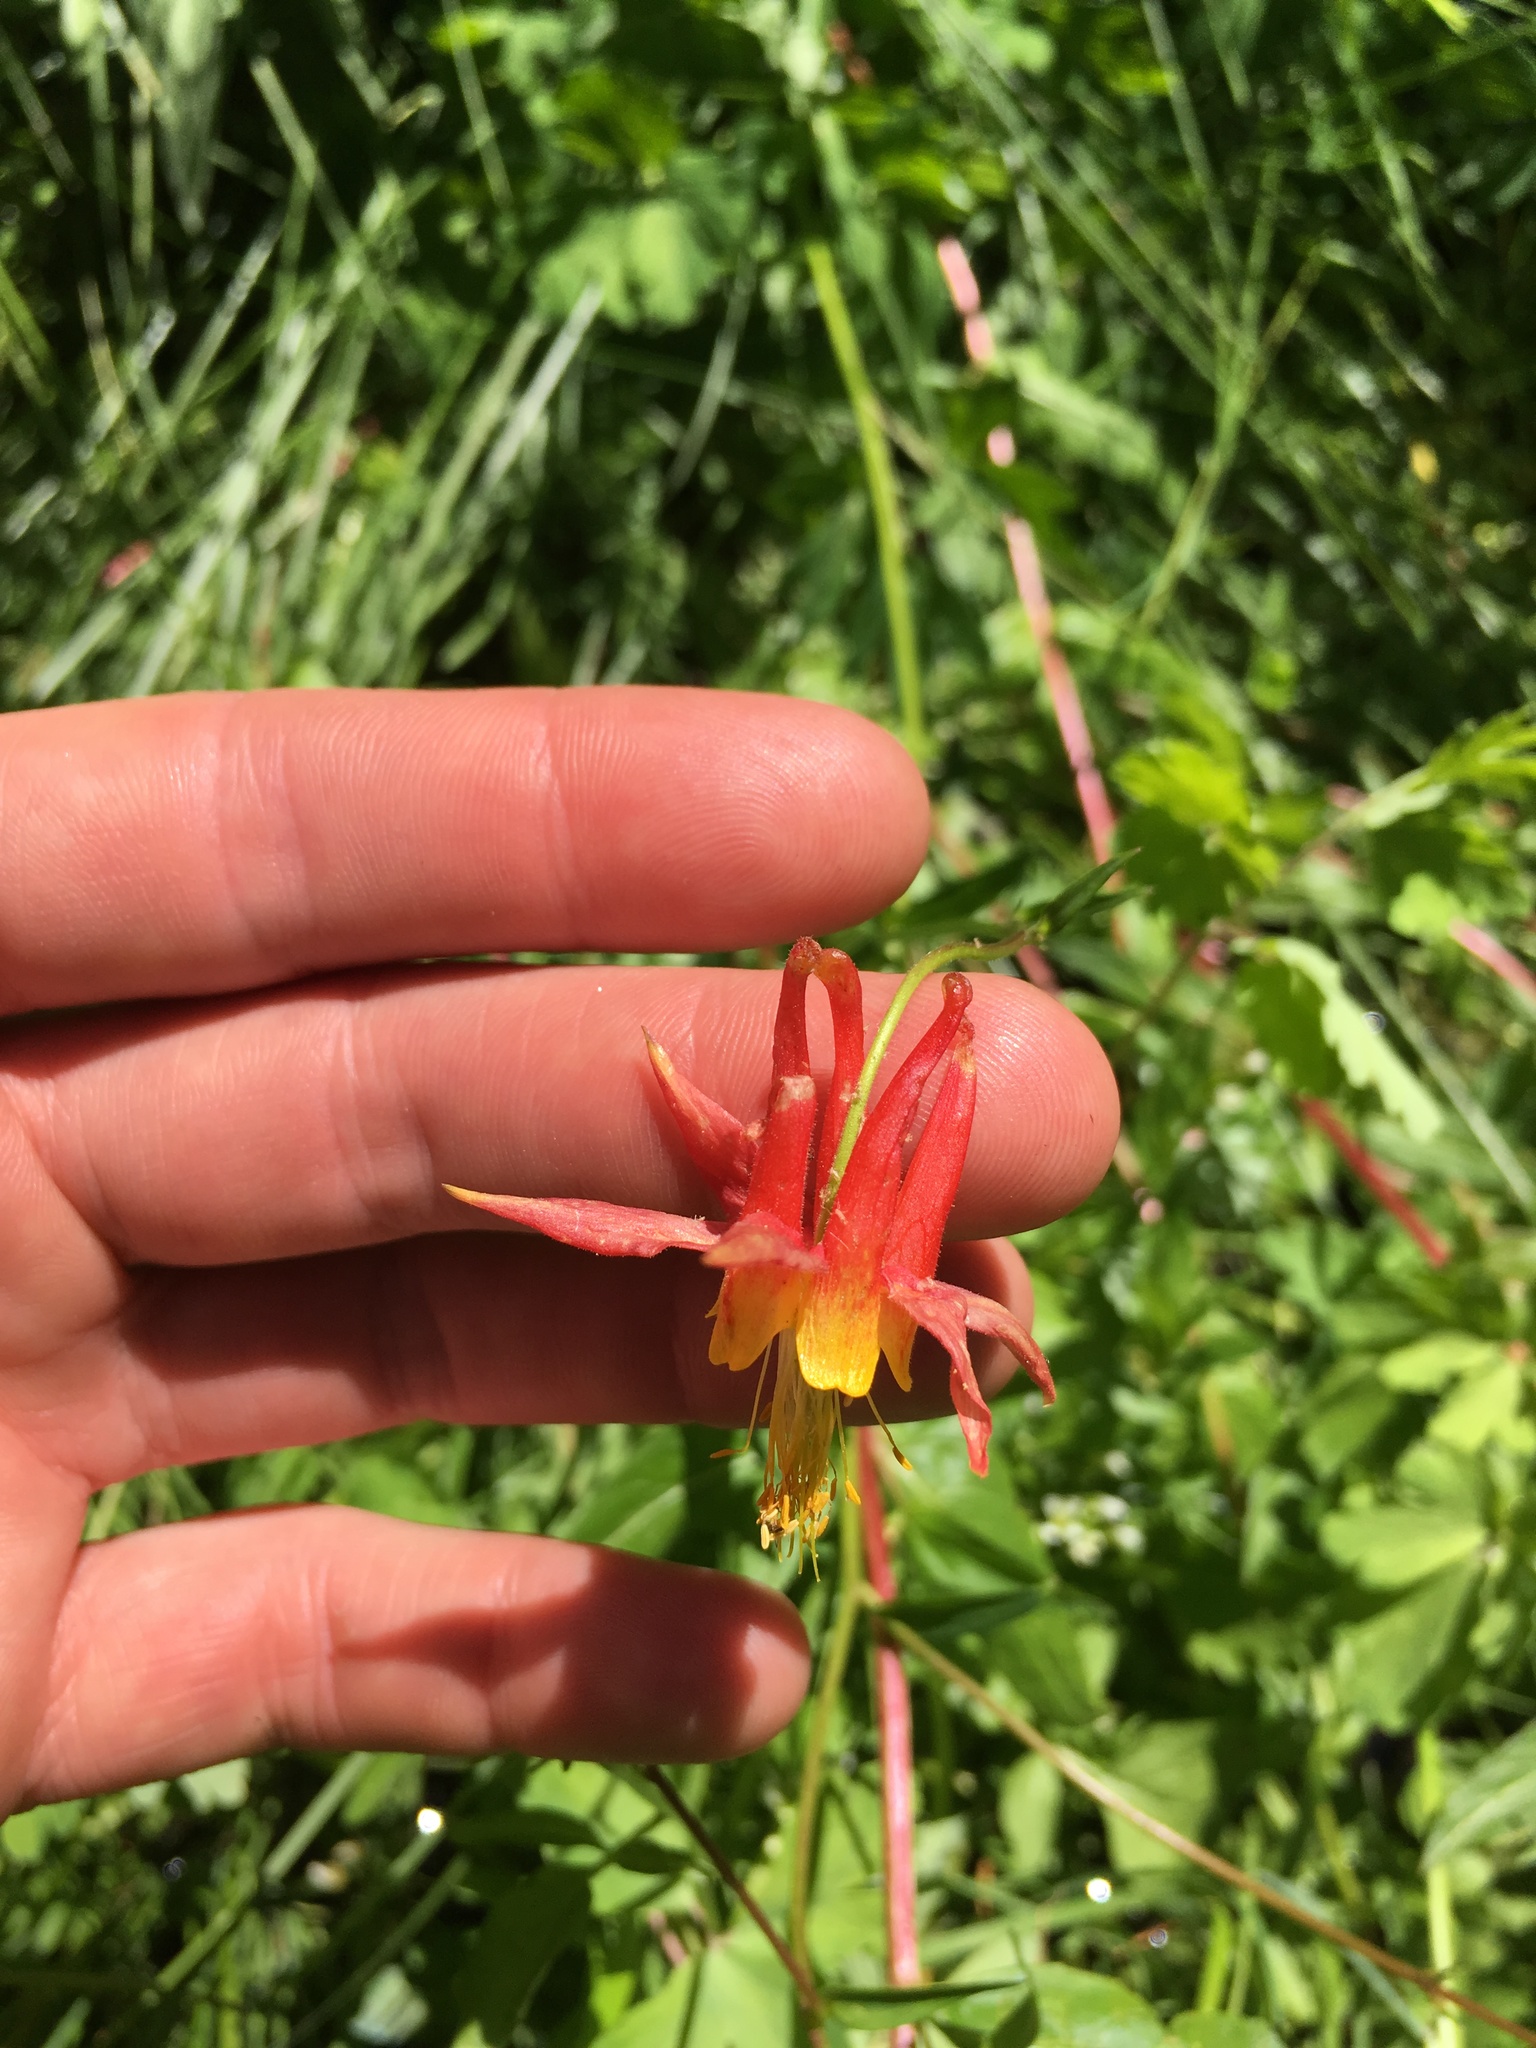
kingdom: Plantae
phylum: Tracheophyta
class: Magnoliopsida
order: Ranunculales
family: Ranunculaceae
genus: Aquilegia
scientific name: Aquilegia formosa
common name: Sitka columbine
